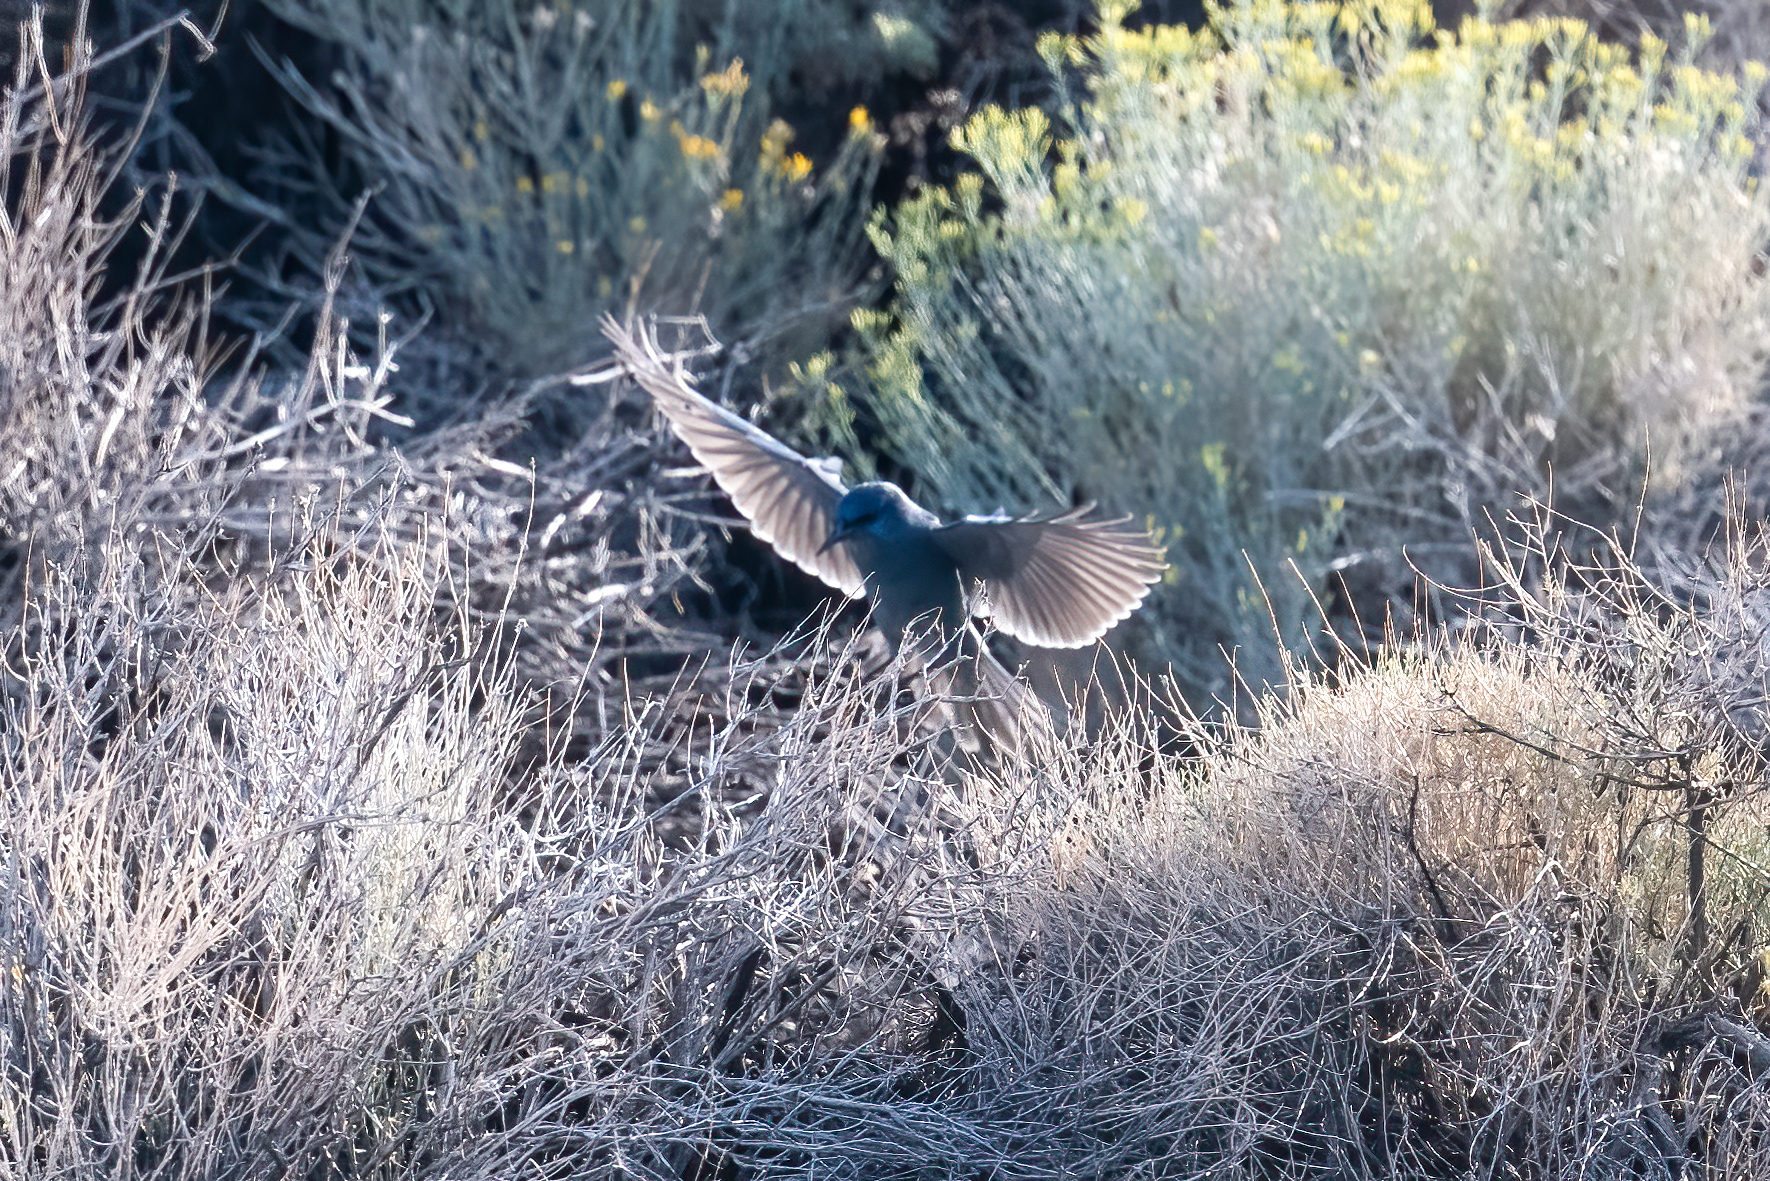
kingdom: Animalia
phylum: Chordata
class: Aves
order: Passeriformes
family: Corvidae
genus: Gymnorhinus
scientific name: Gymnorhinus cyanocephalus
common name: Pinyon jay
